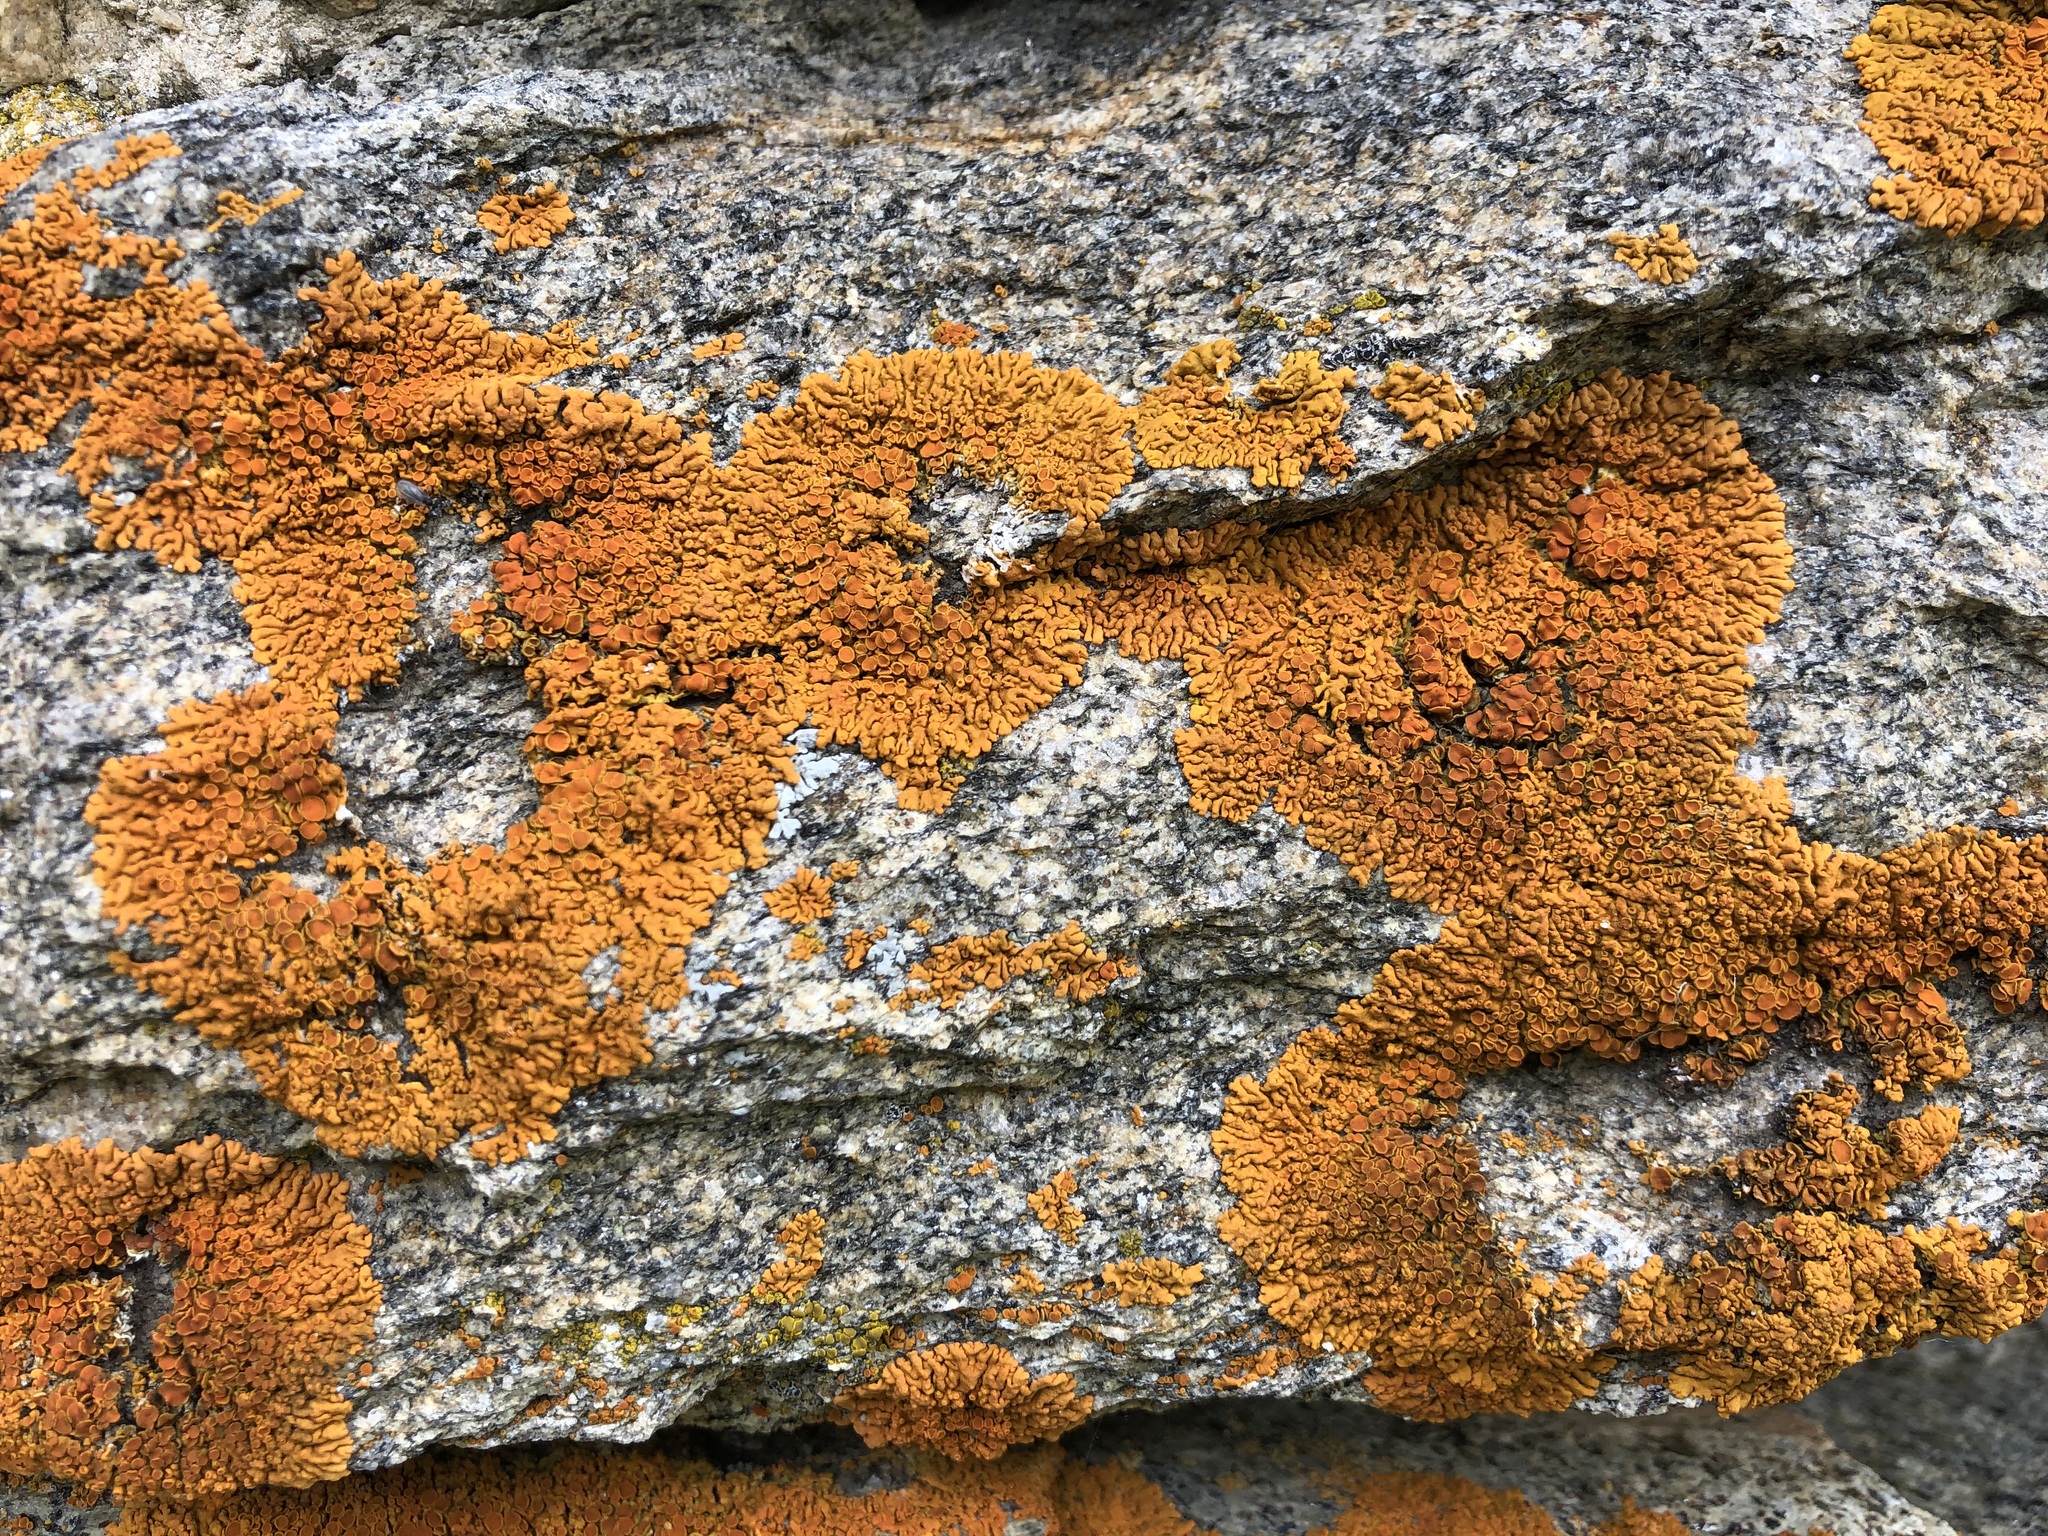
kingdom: Fungi
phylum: Ascomycota
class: Lecanoromycetes
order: Teloschistales
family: Teloschistaceae
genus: Xanthoria
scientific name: Xanthoria elegans
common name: Elegant sunburst lichen
